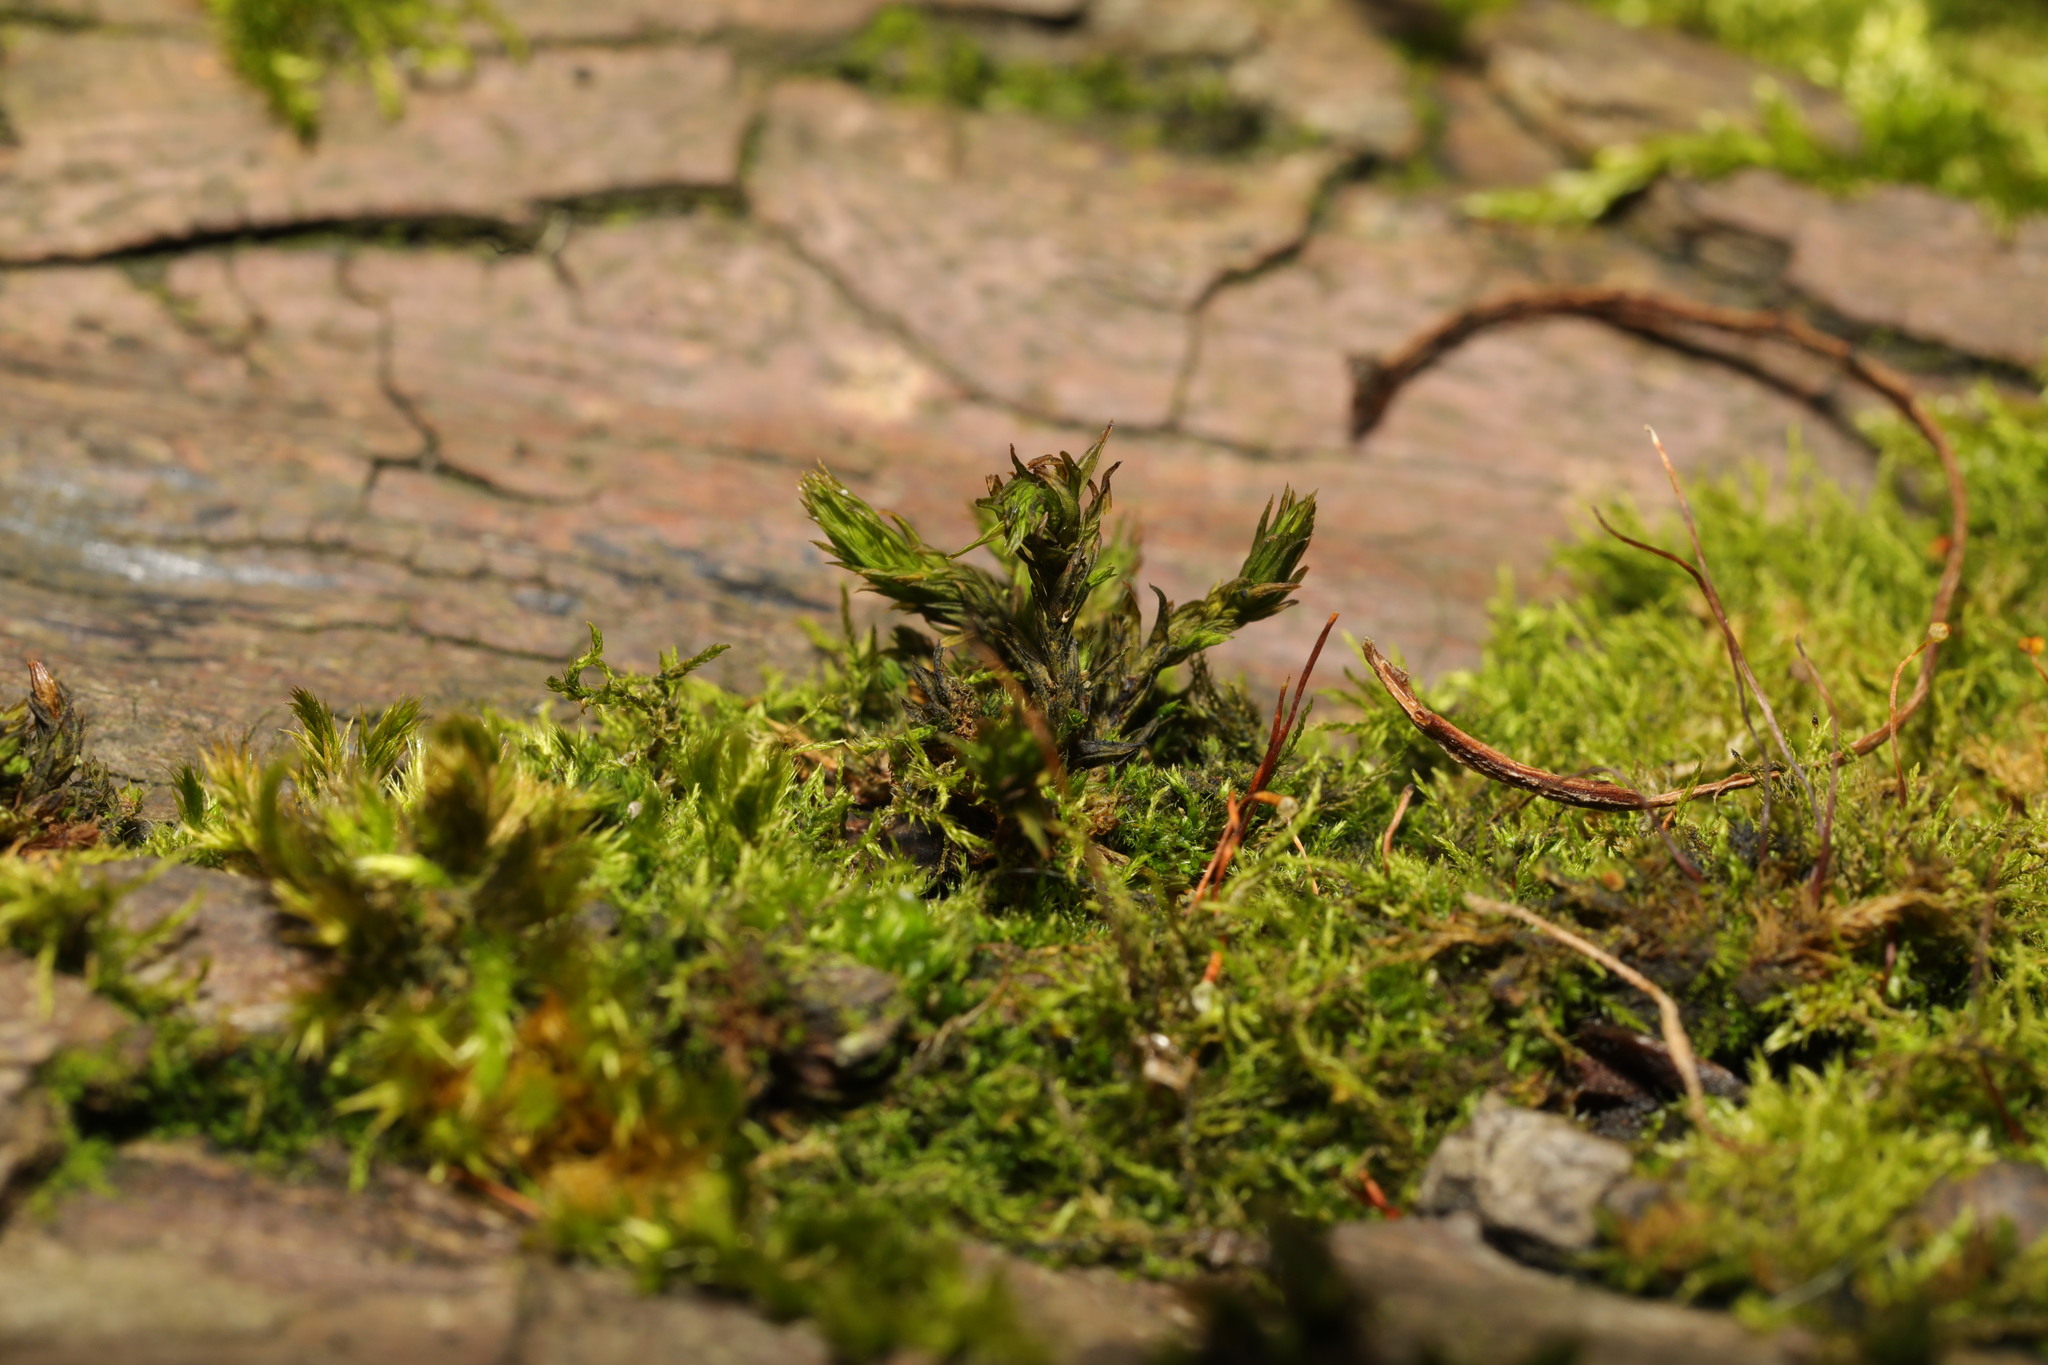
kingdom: Plantae
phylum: Bryophyta
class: Bryopsida
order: Orthotrichales
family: Orthotrichaceae
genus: Lewinskya
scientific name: Lewinskya affinis
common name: Wood bristle-moss
